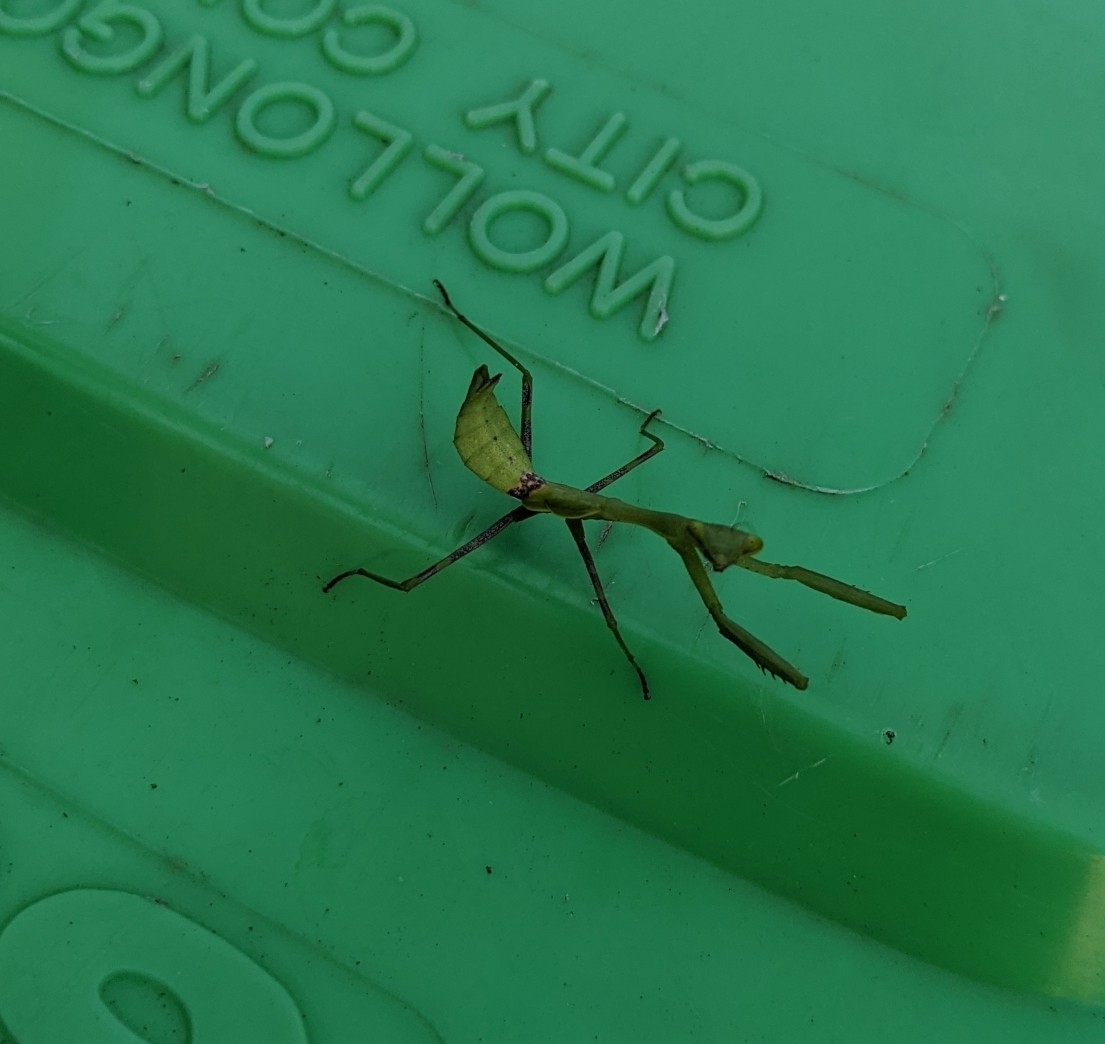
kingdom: Animalia
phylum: Arthropoda
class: Insecta
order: Mantodea
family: Miomantidae
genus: Miomantis
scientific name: Miomantis caffra
